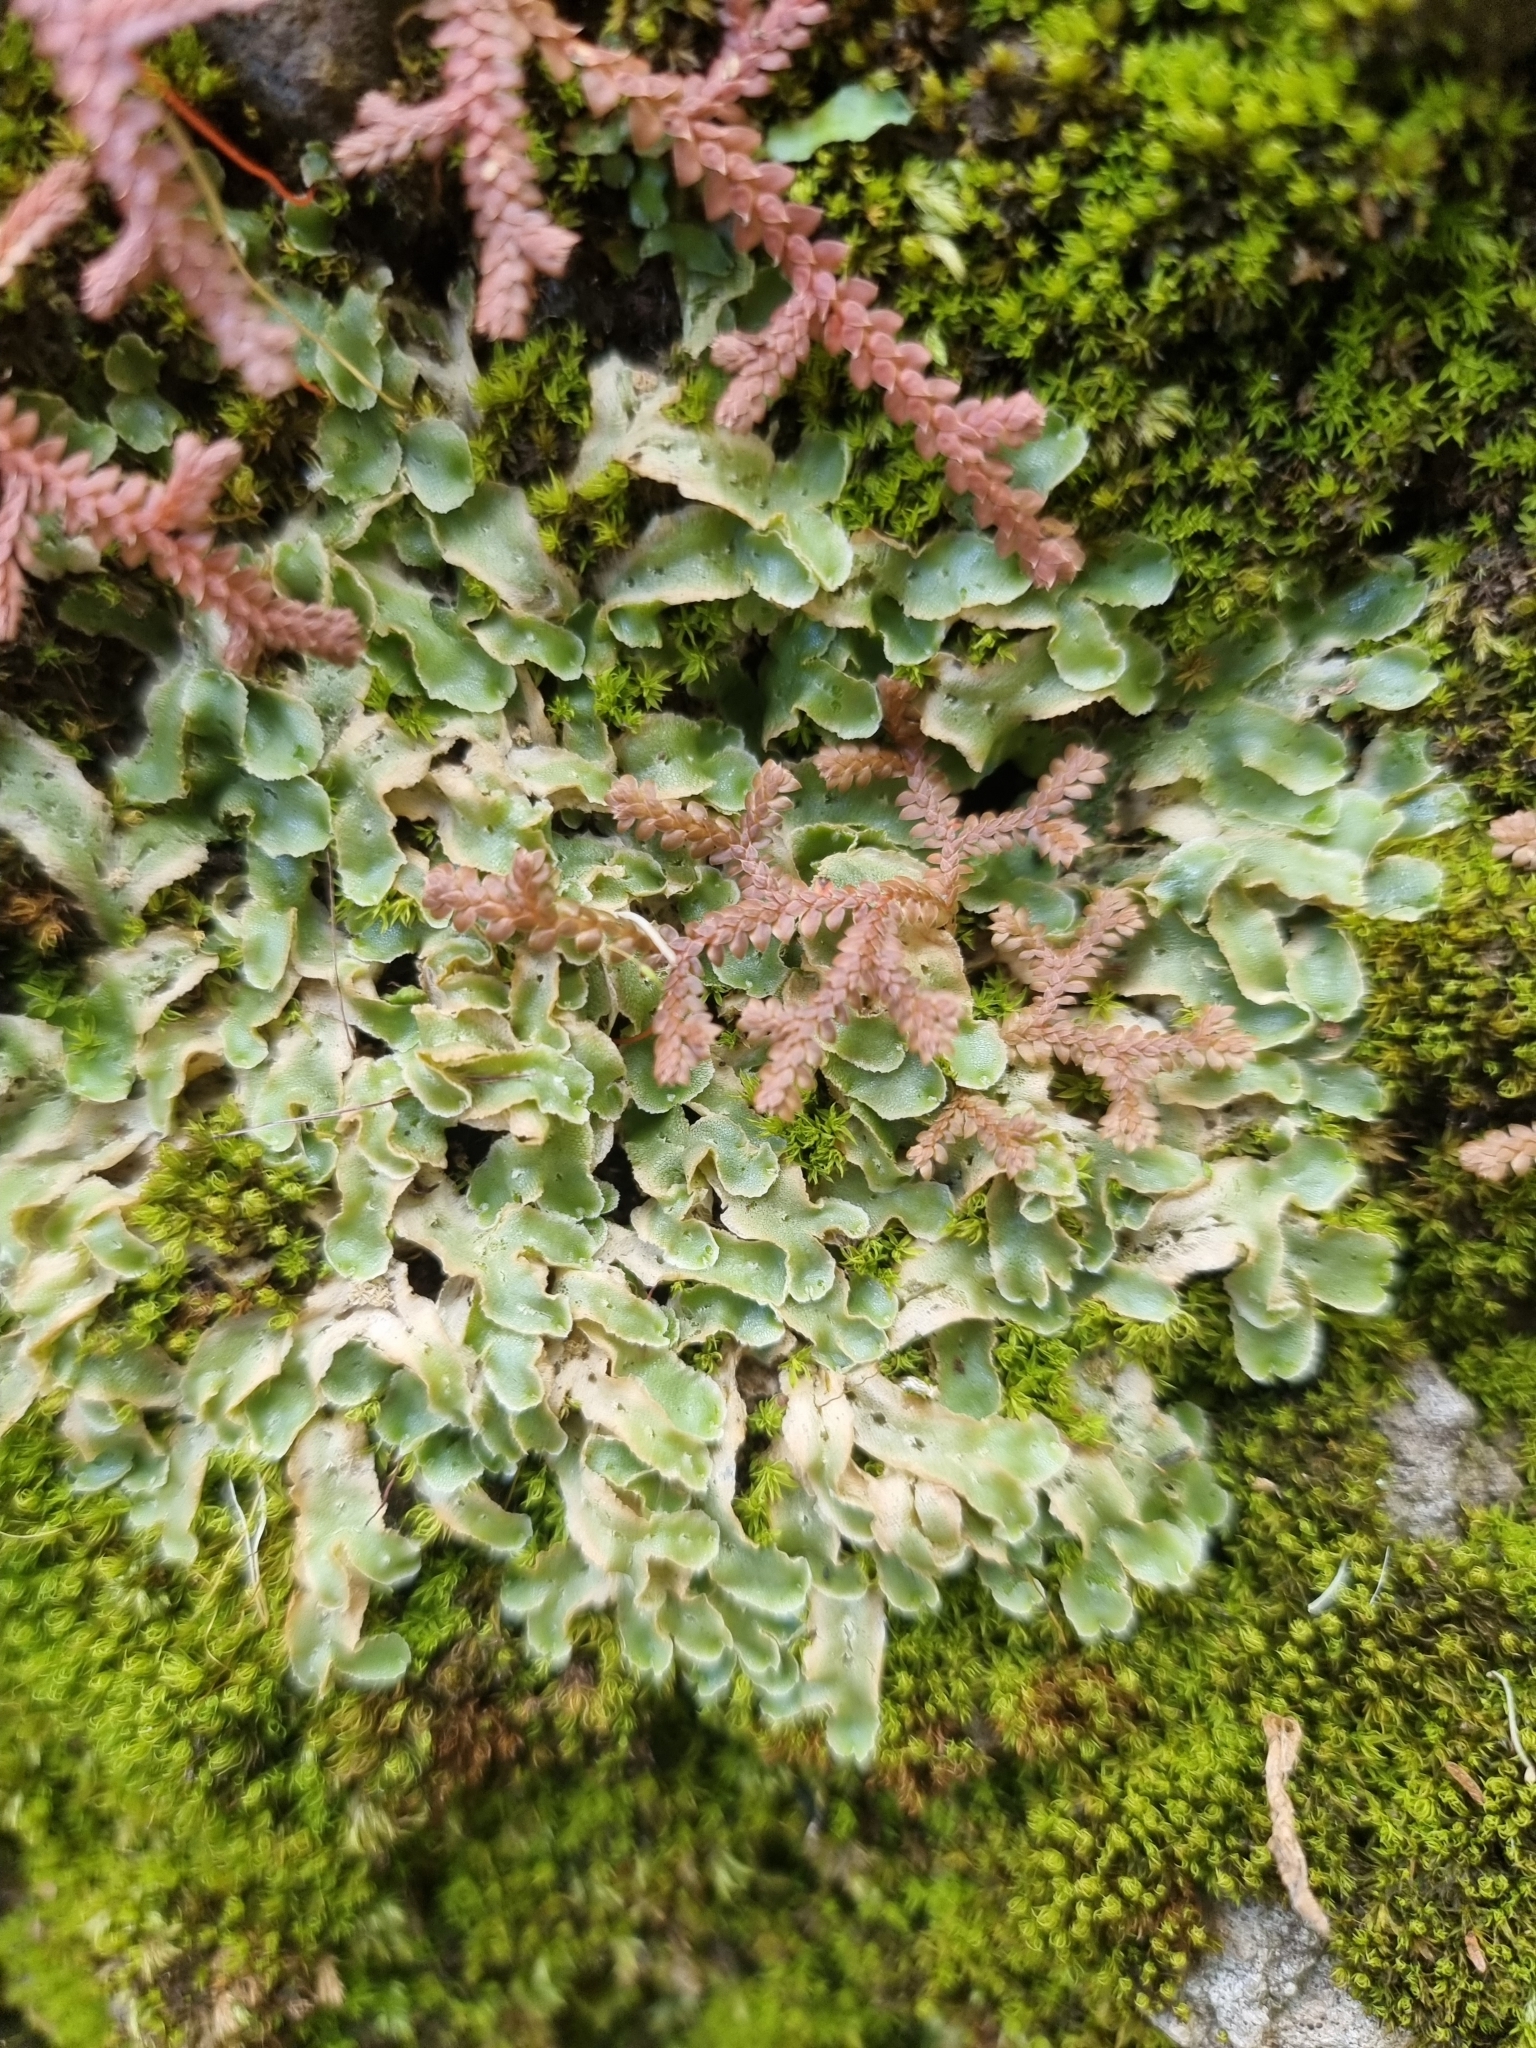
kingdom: Plantae
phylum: Marchantiophyta
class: Marchantiopsida
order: Lunulariales
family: Lunulariaceae
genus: Lunularia
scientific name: Lunularia cruciata
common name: Crescent-cup liverwort
